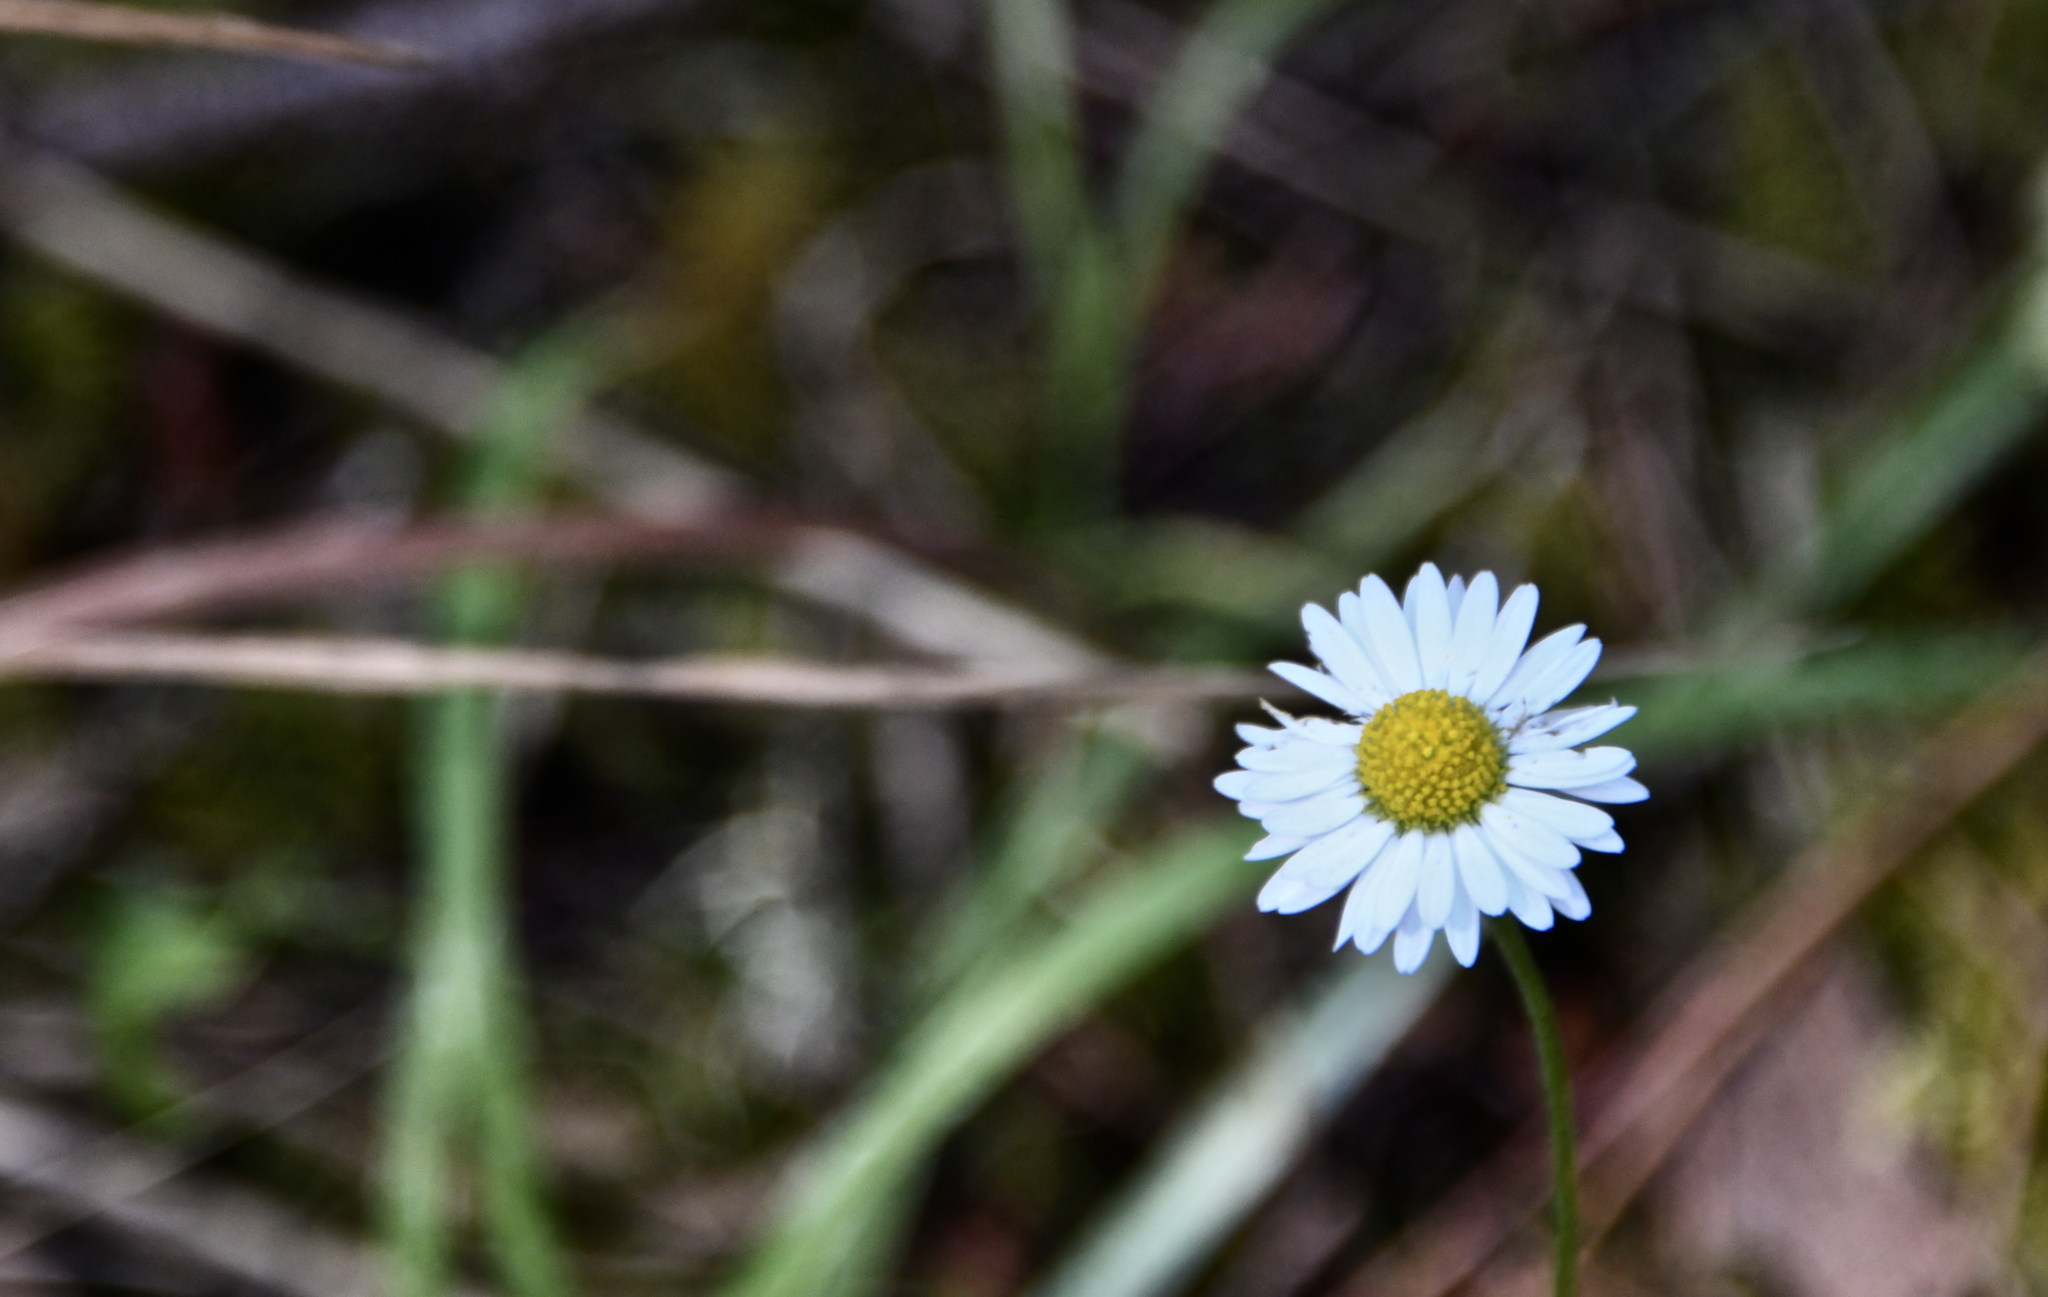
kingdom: Plantae
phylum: Tracheophyta
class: Magnoliopsida
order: Asterales
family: Asteraceae
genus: Bellis
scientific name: Bellis perennis
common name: Lawndaisy
